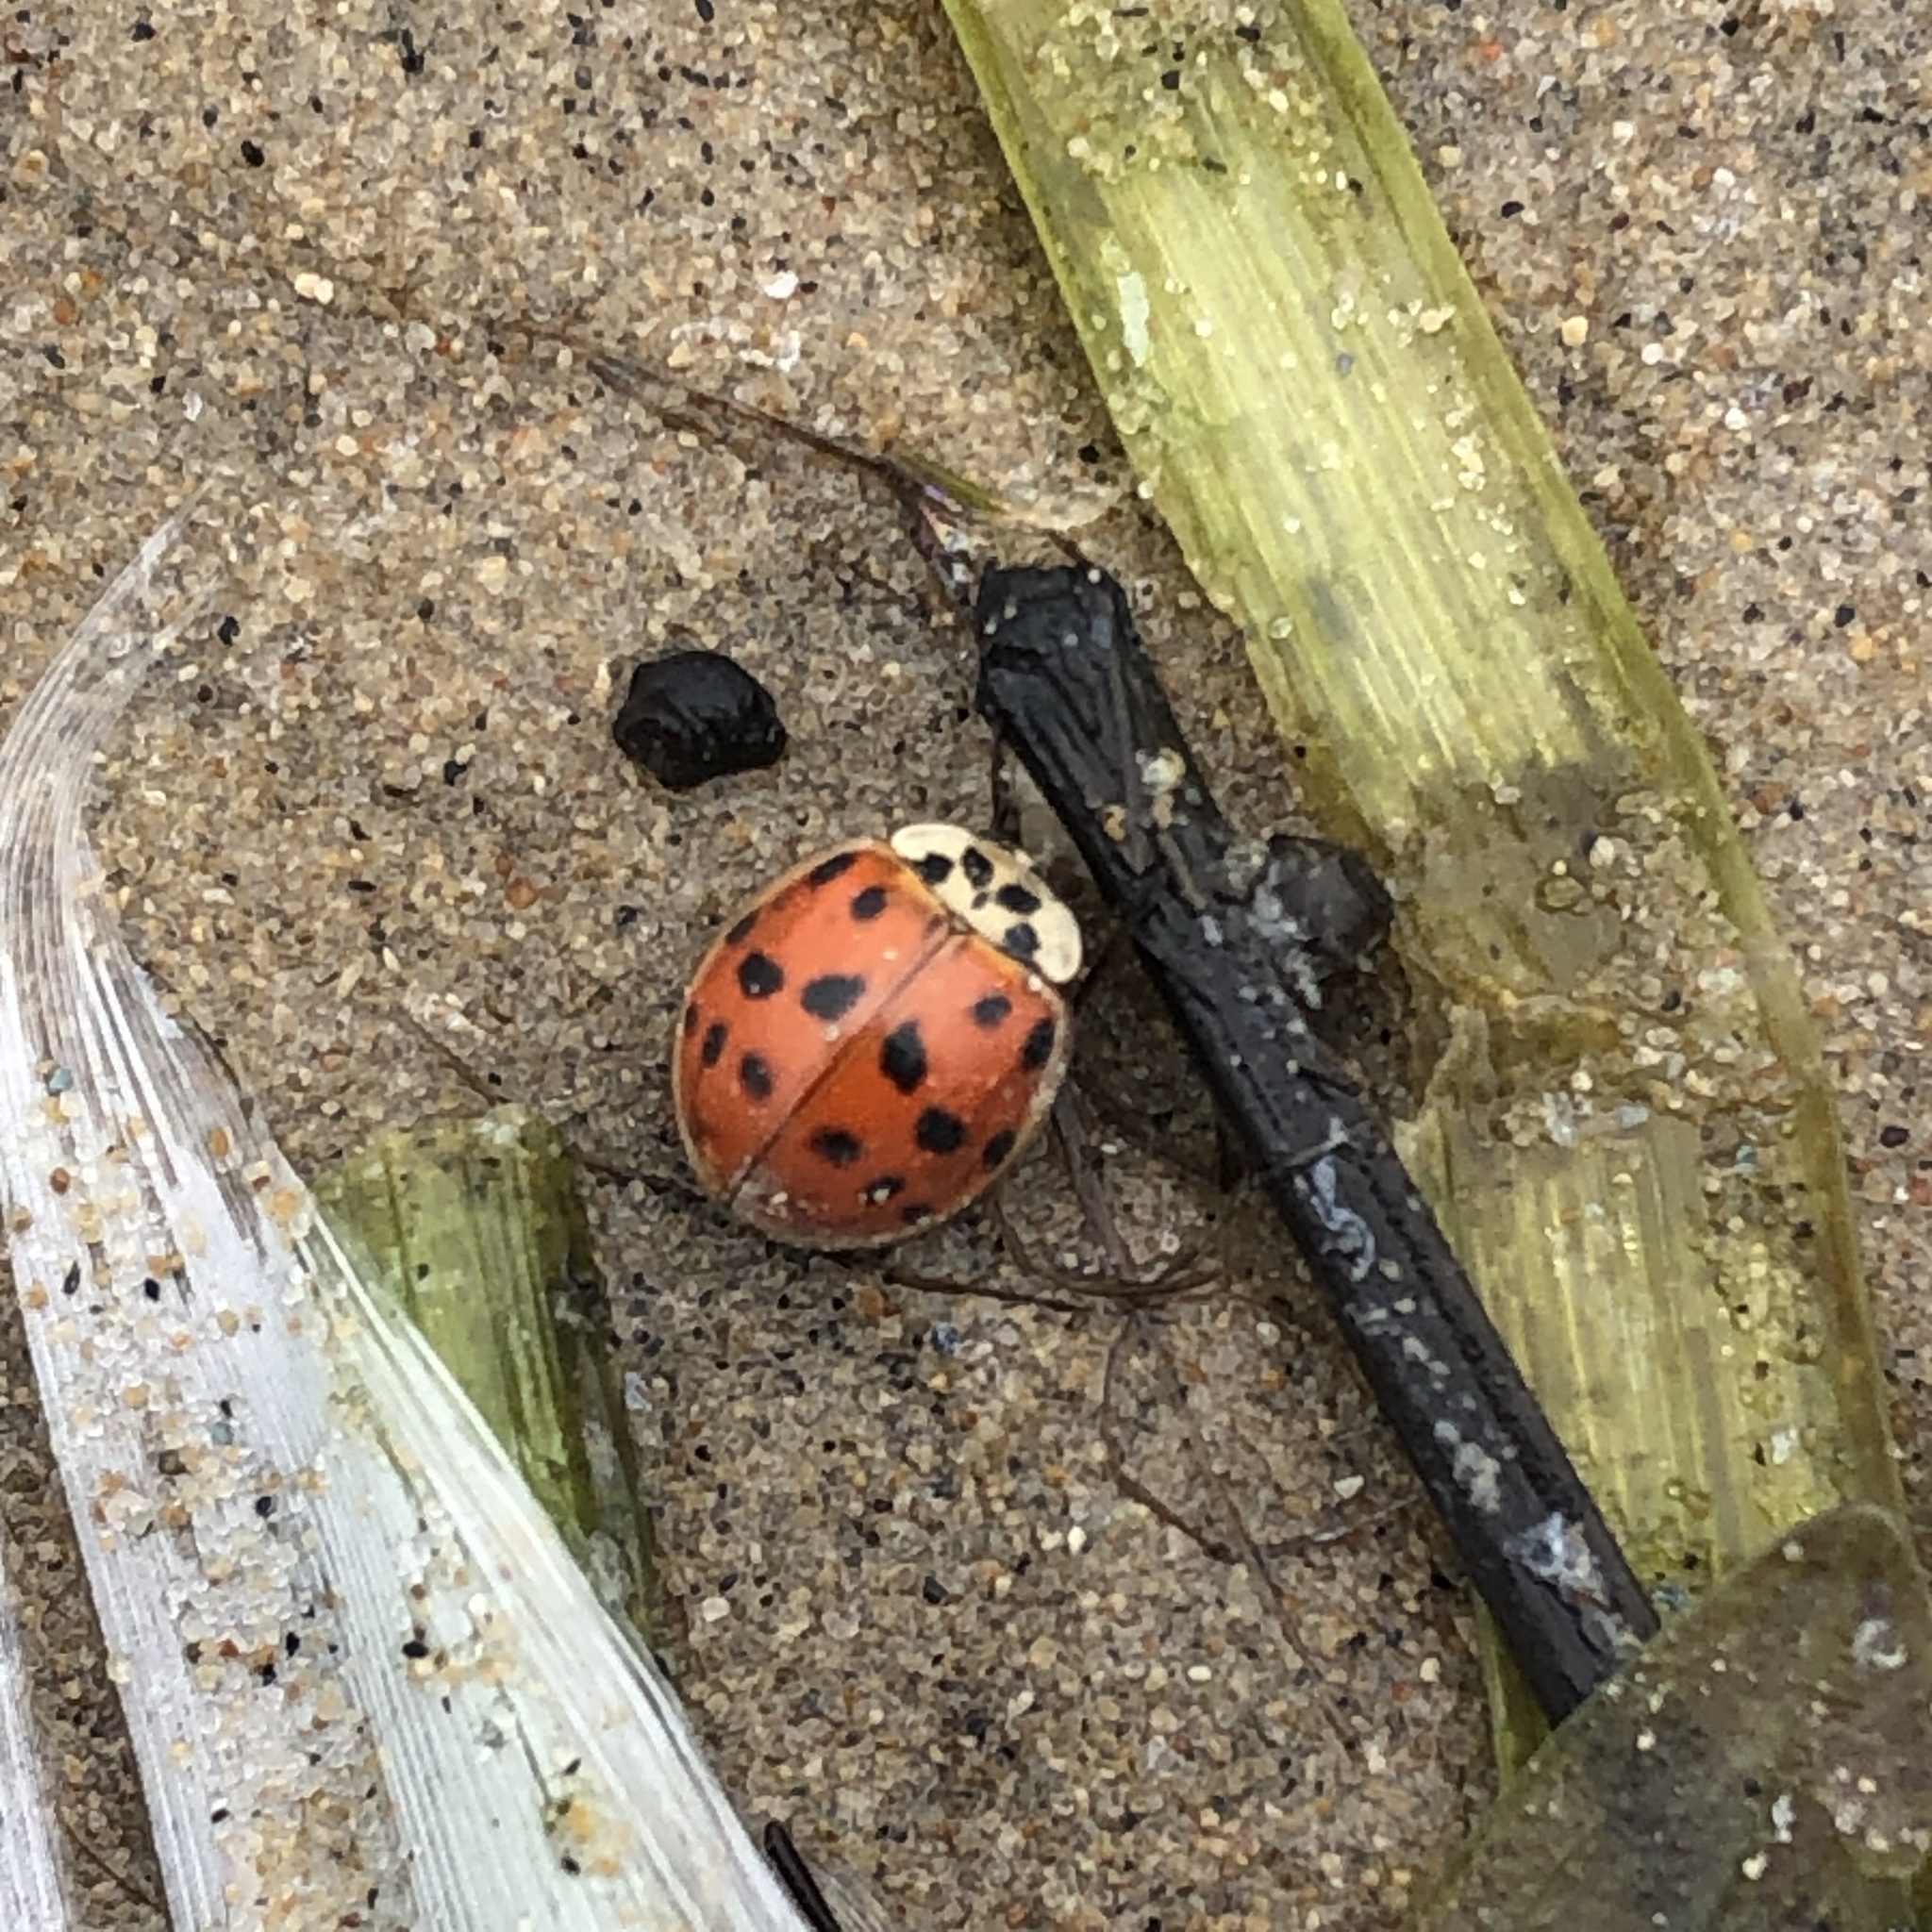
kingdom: Animalia
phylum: Arthropoda
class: Insecta
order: Coleoptera
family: Coccinellidae
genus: Harmonia
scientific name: Harmonia axyridis
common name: Harlequin ladybird
